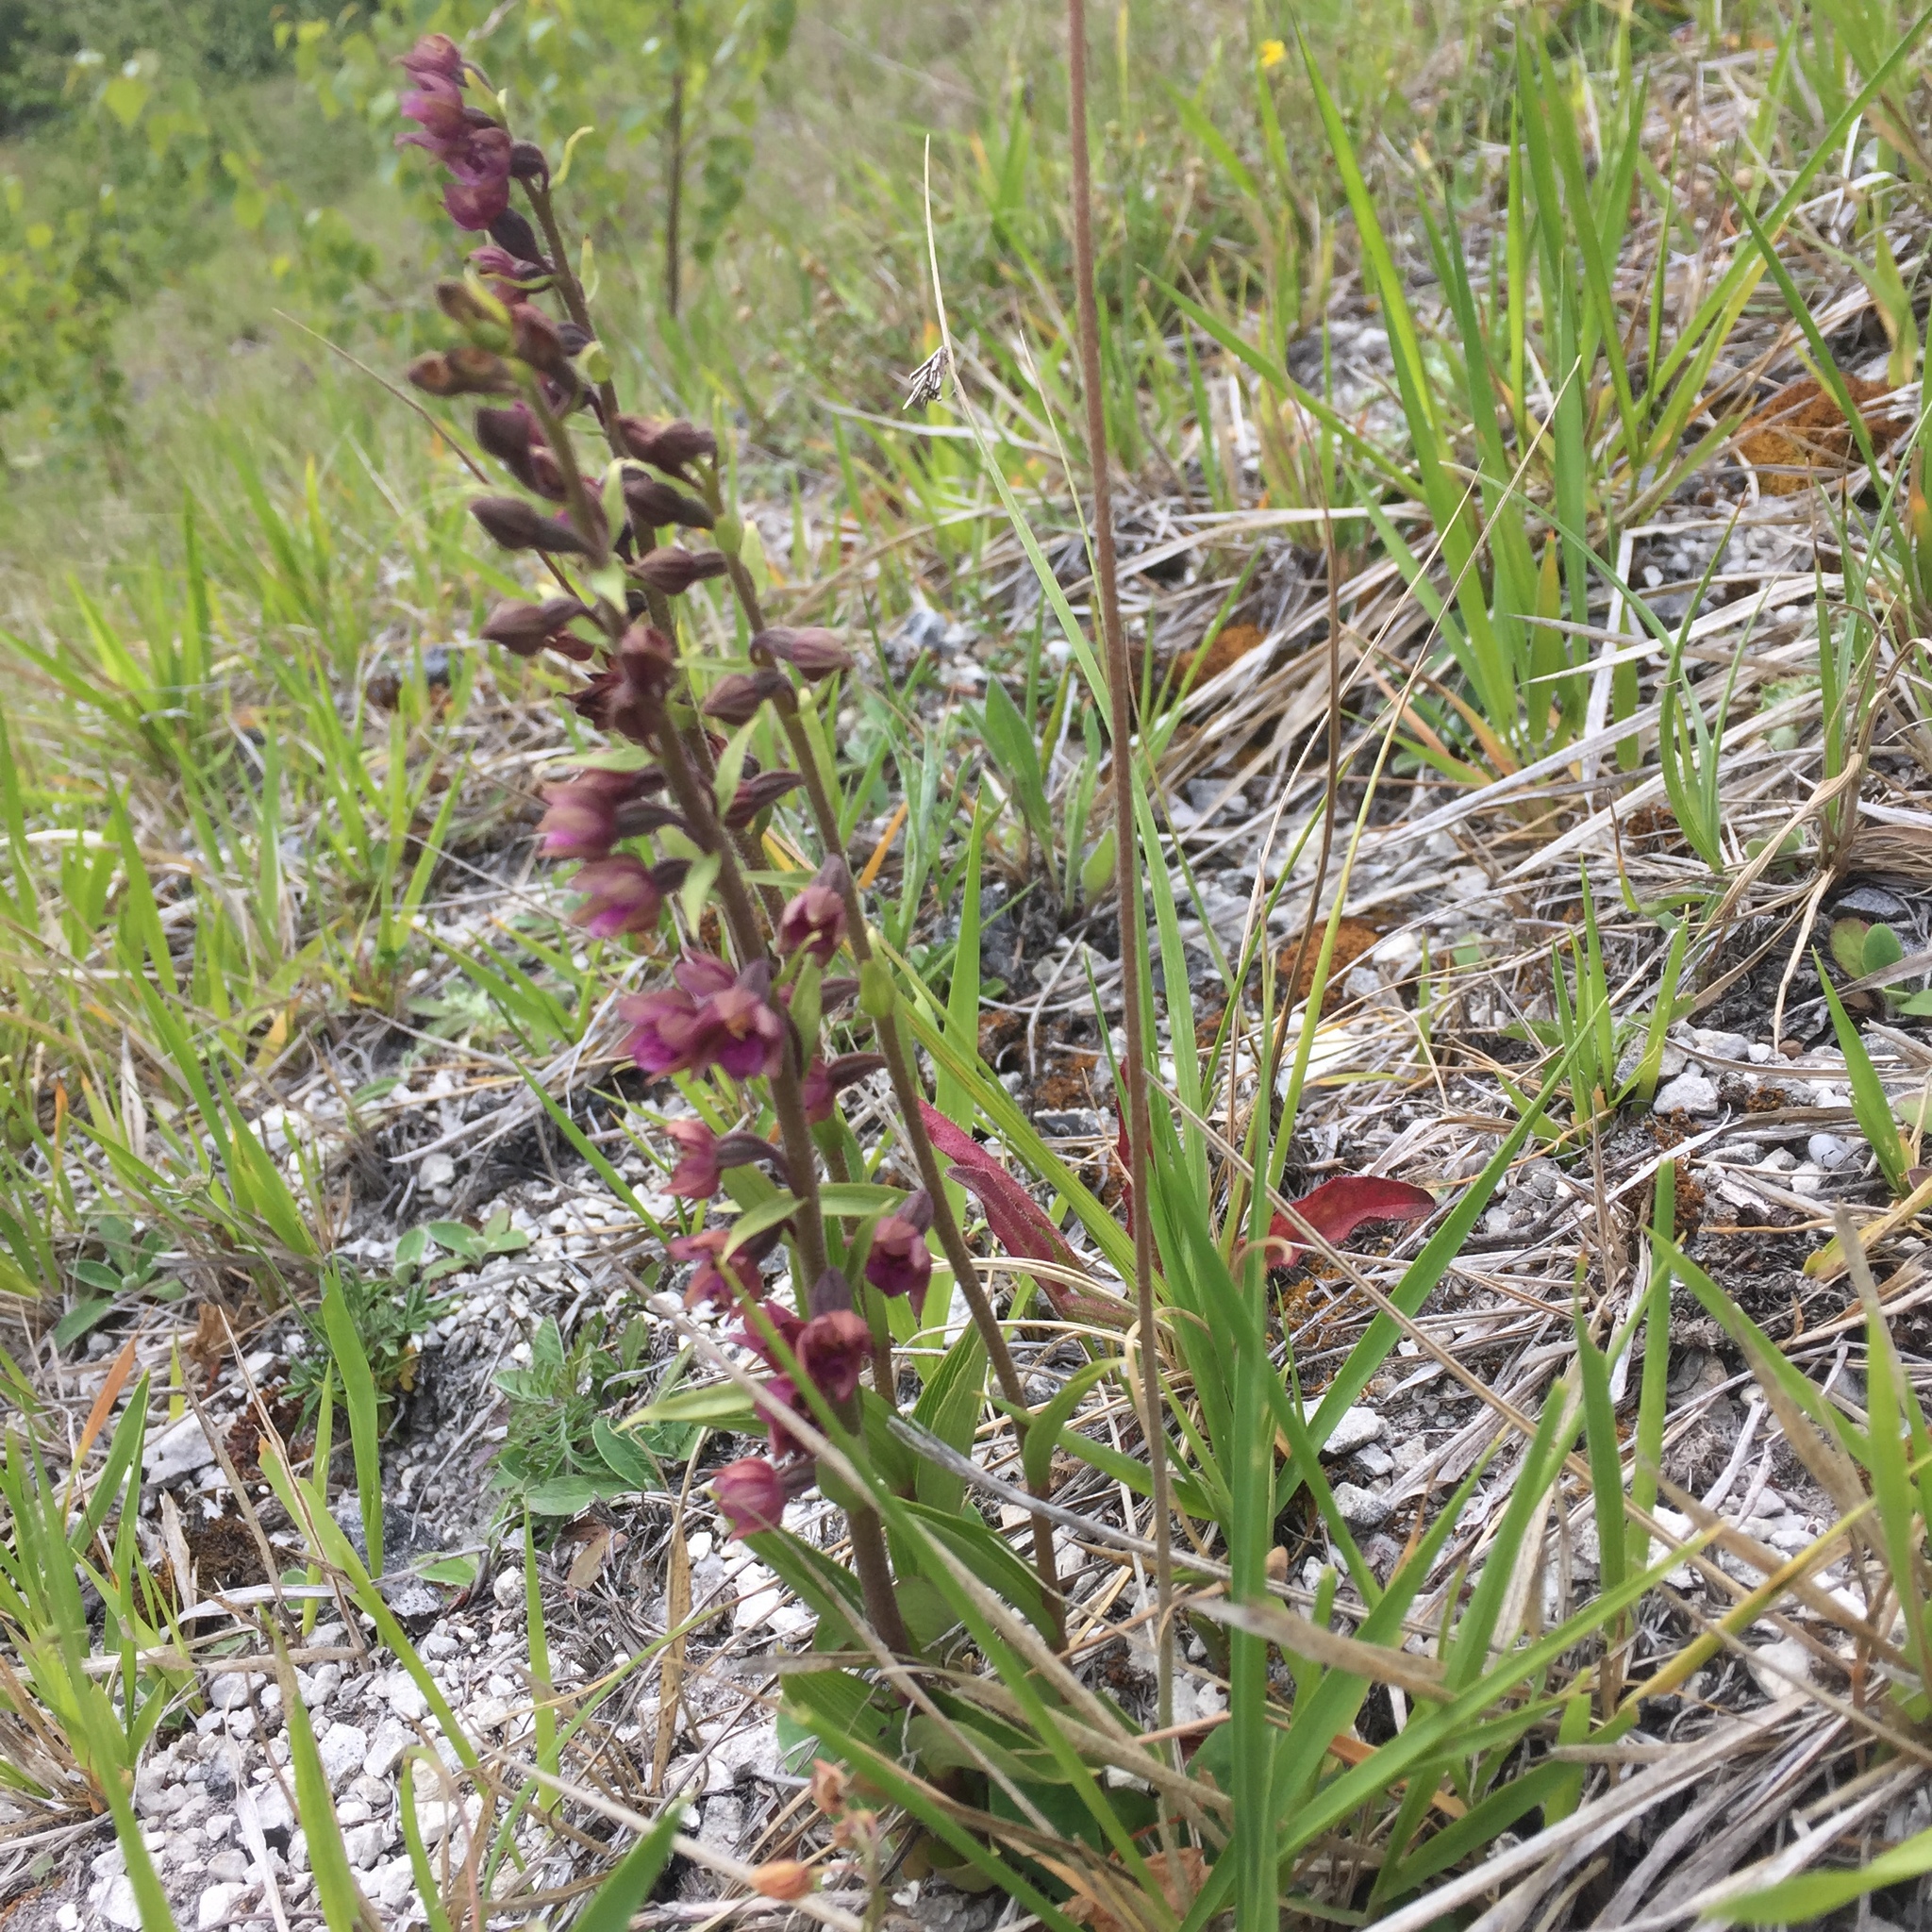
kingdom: Plantae
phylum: Tracheophyta
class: Liliopsida
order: Asparagales
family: Orchidaceae
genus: Epipactis
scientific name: Epipactis atrorubens
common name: Dark-red helleborine
